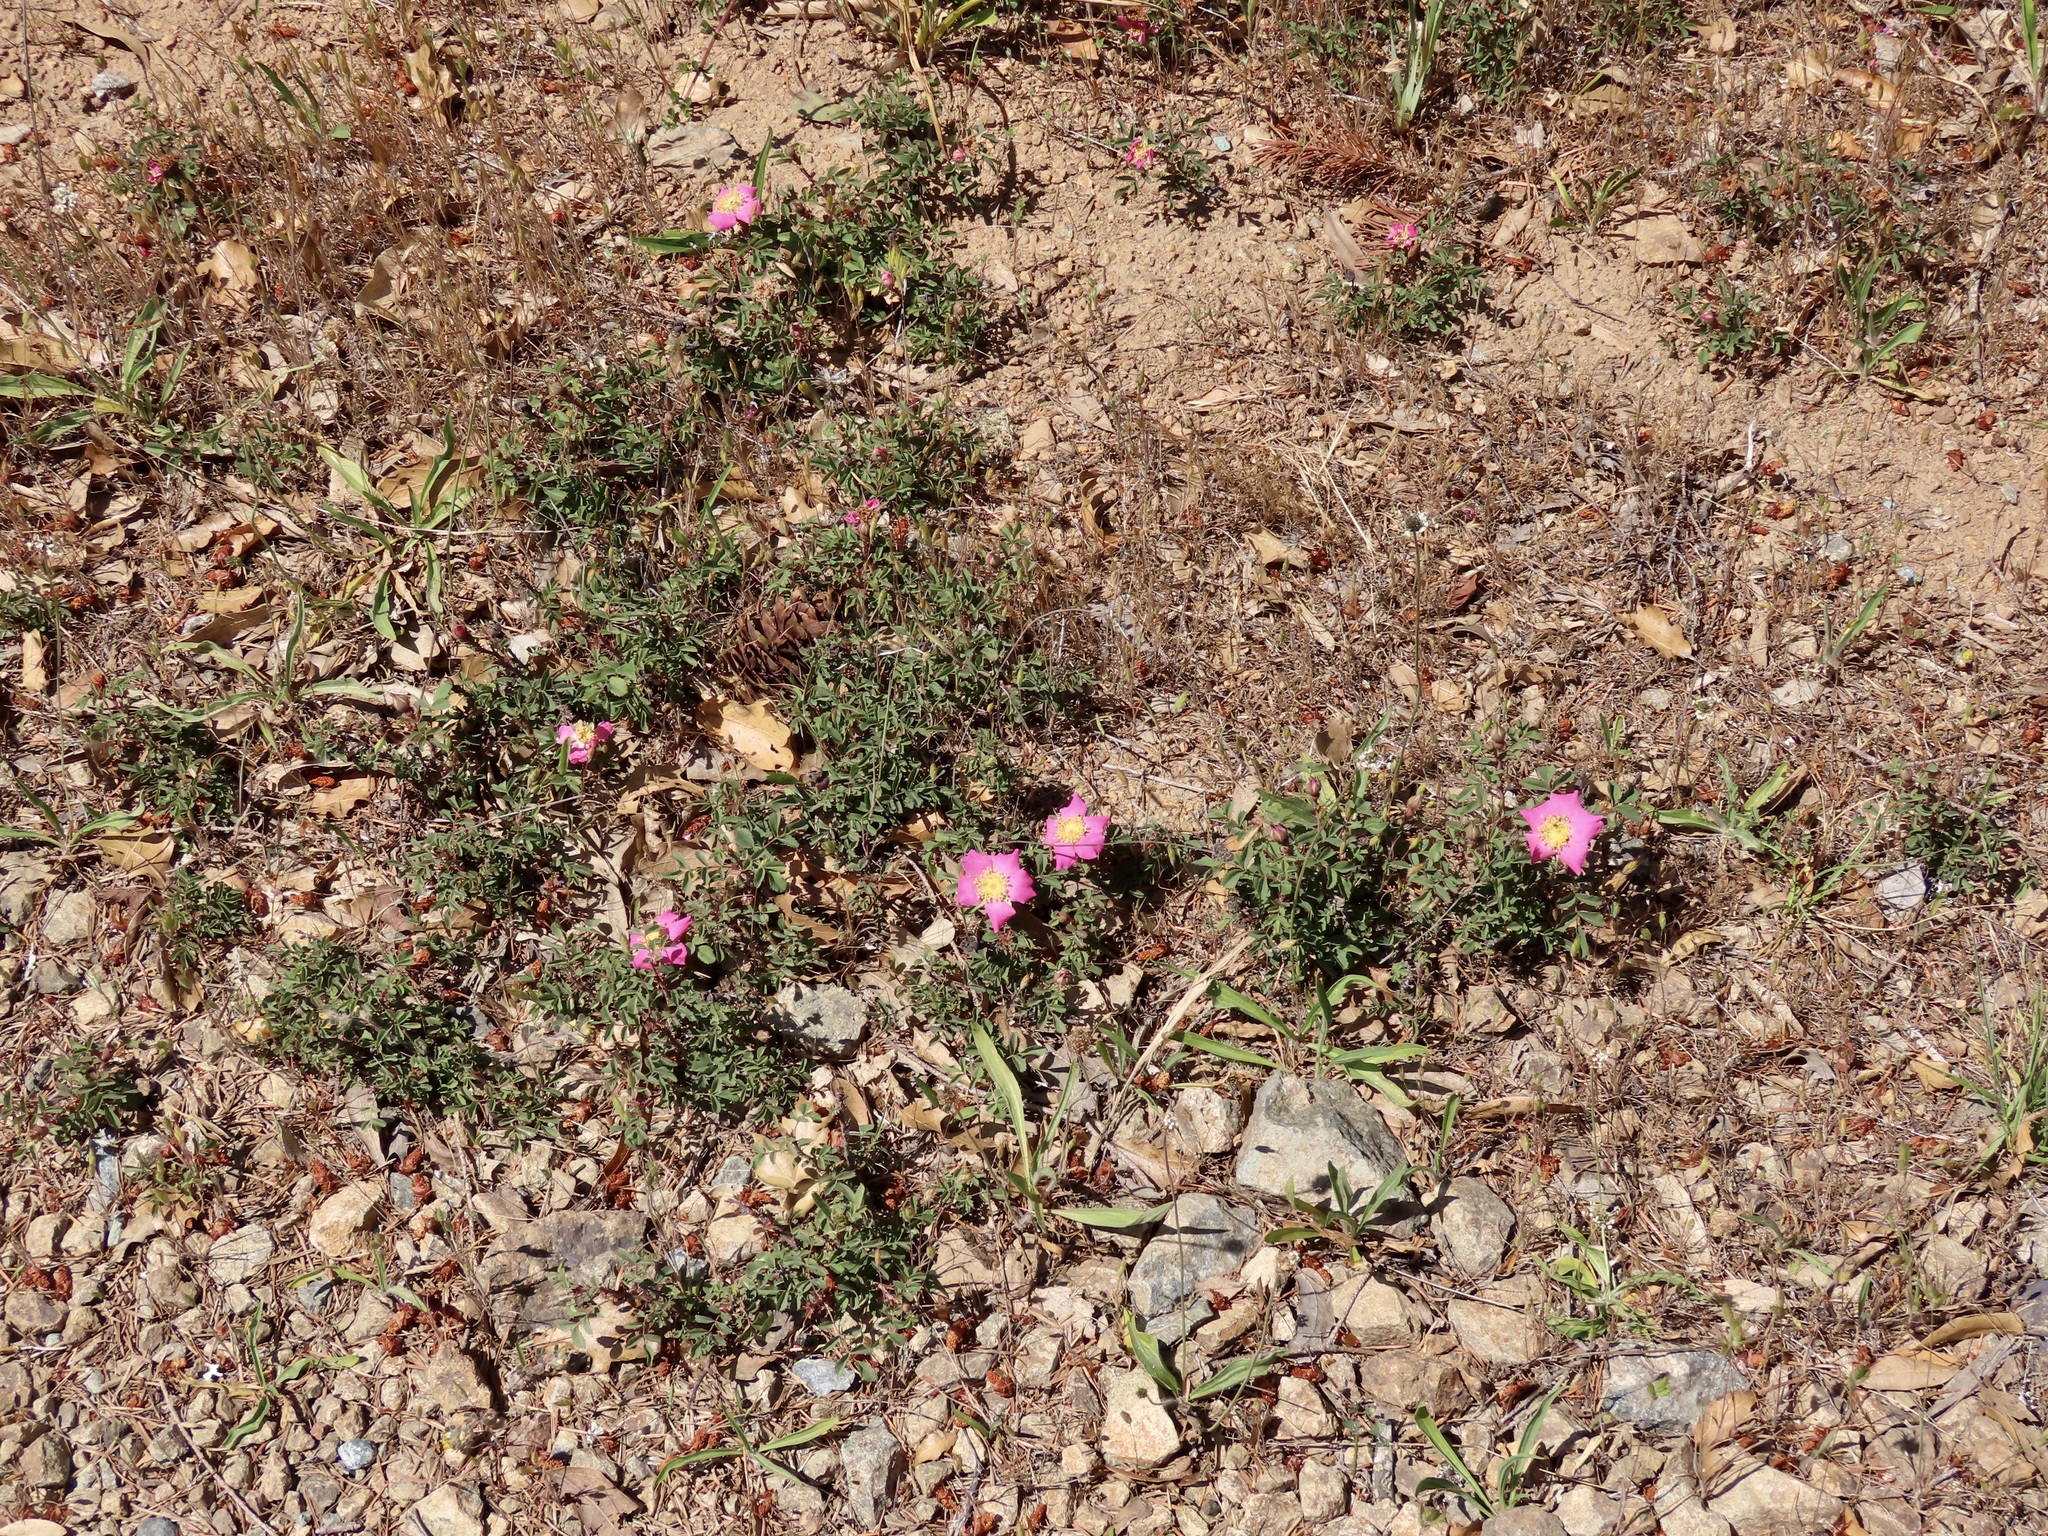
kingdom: Plantae
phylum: Tracheophyta
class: Magnoliopsida
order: Rosales
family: Rosaceae
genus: Rosa
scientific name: Rosa spithamea
